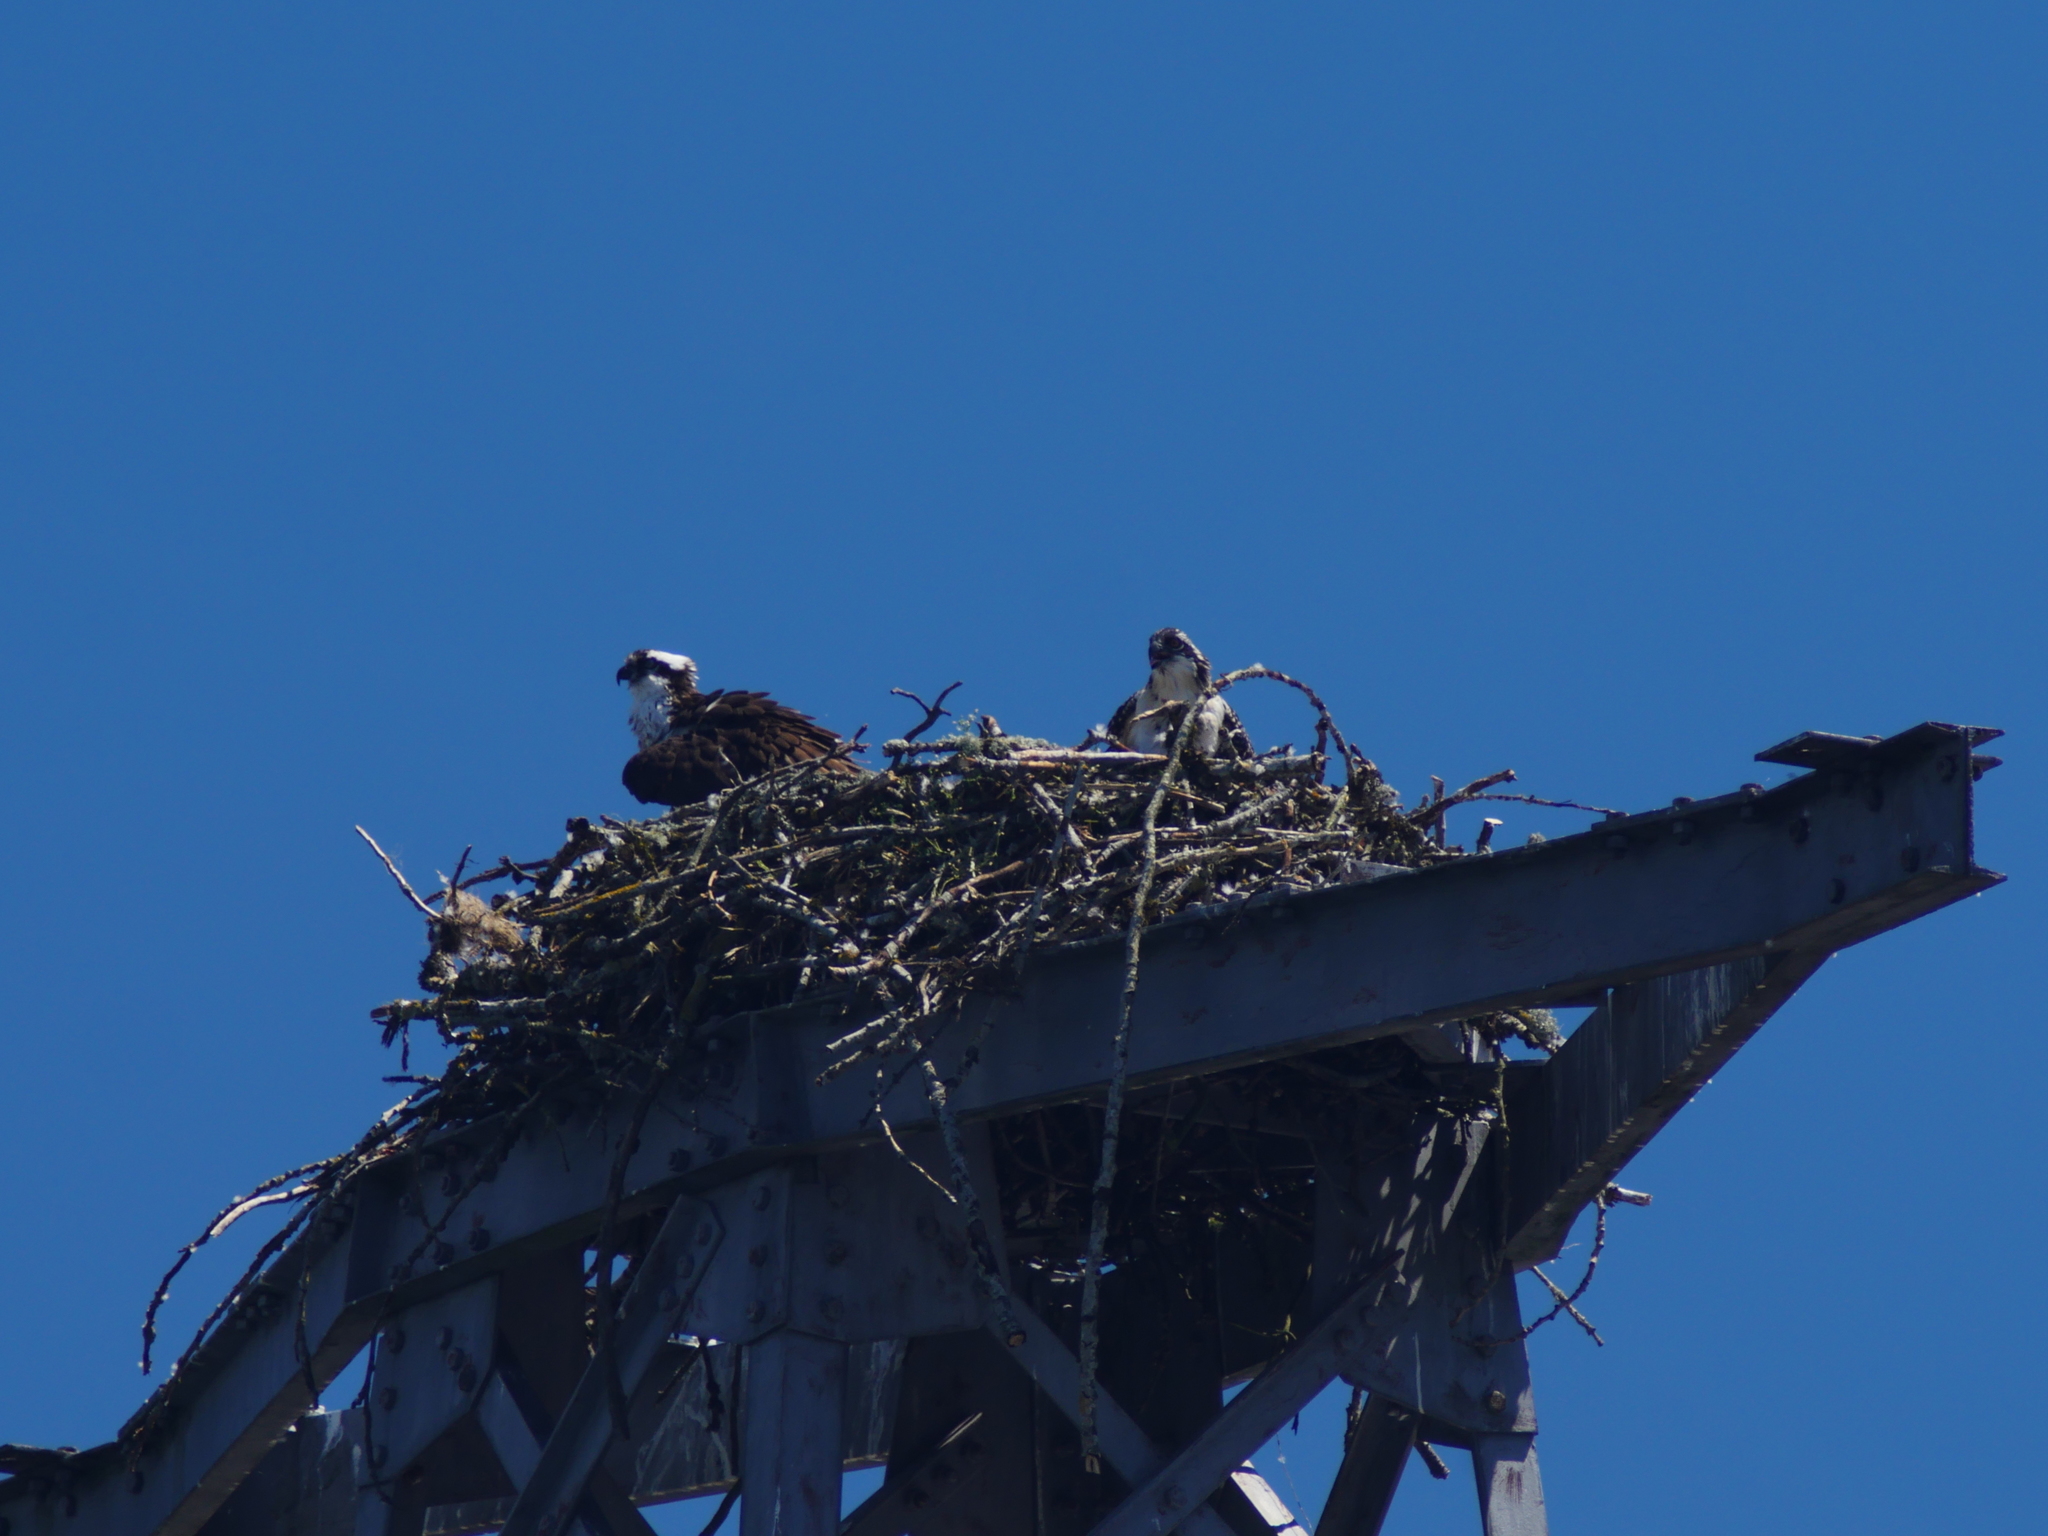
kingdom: Animalia
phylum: Chordata
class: Aves
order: Accipitriformes
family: Pandionidae
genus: Pandion
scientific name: Pandion haliaetus
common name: Osprey
